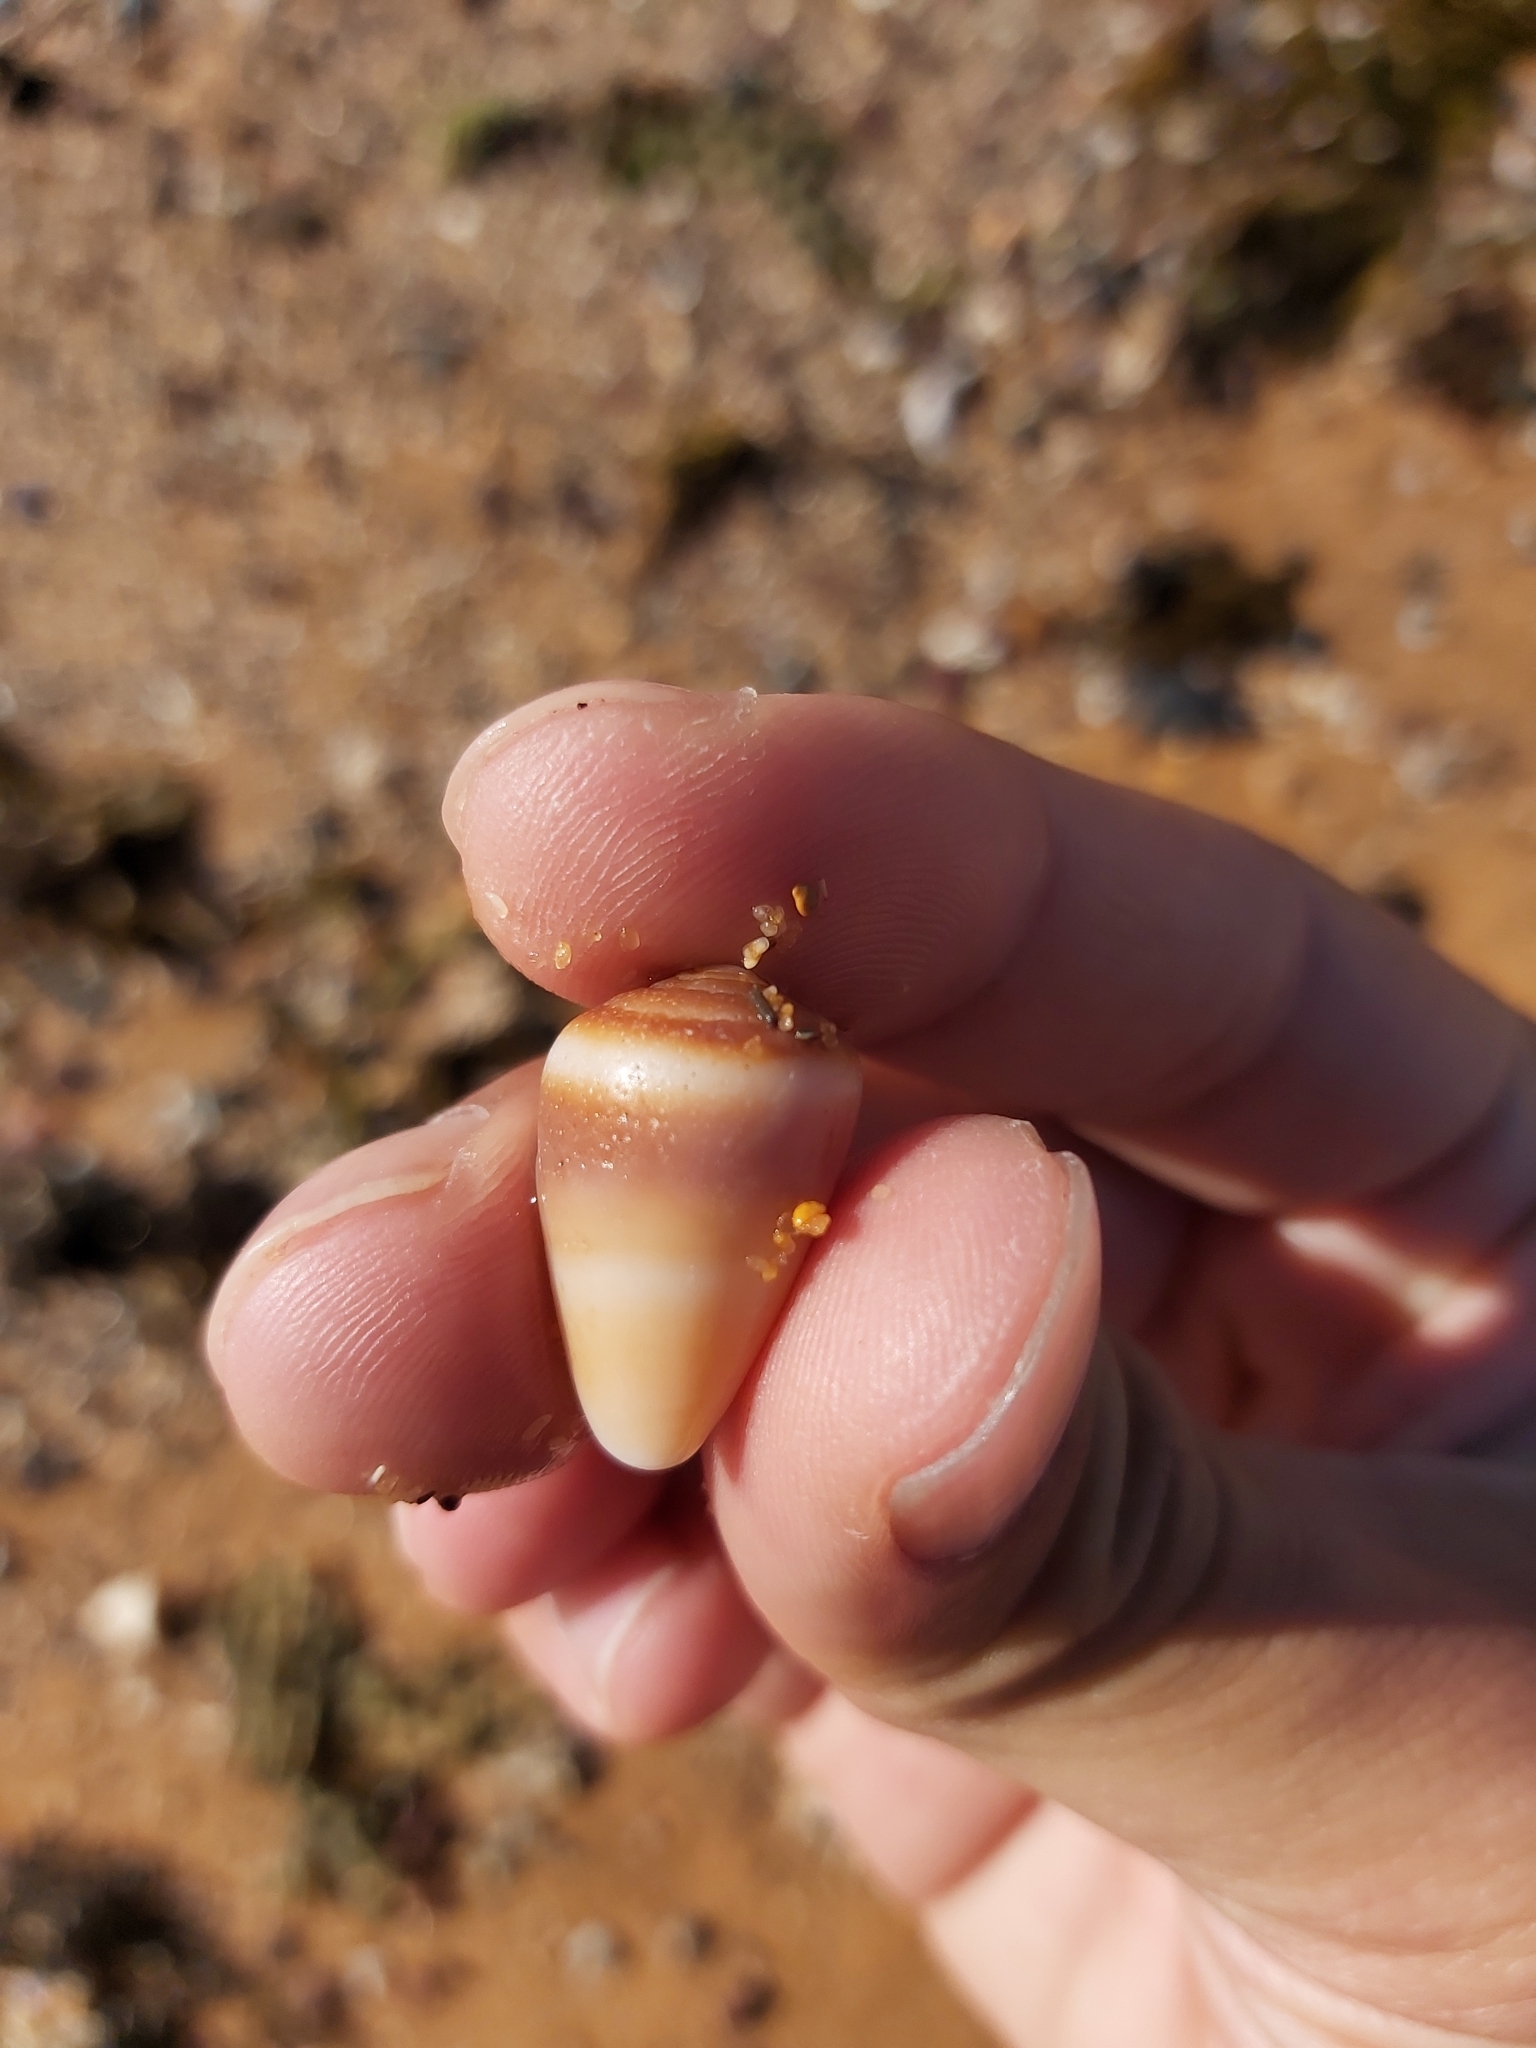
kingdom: Animalia
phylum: Mollusca
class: Gastropoda
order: Neogastropoda
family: Conidae
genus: Conus
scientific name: Conus aplustre
